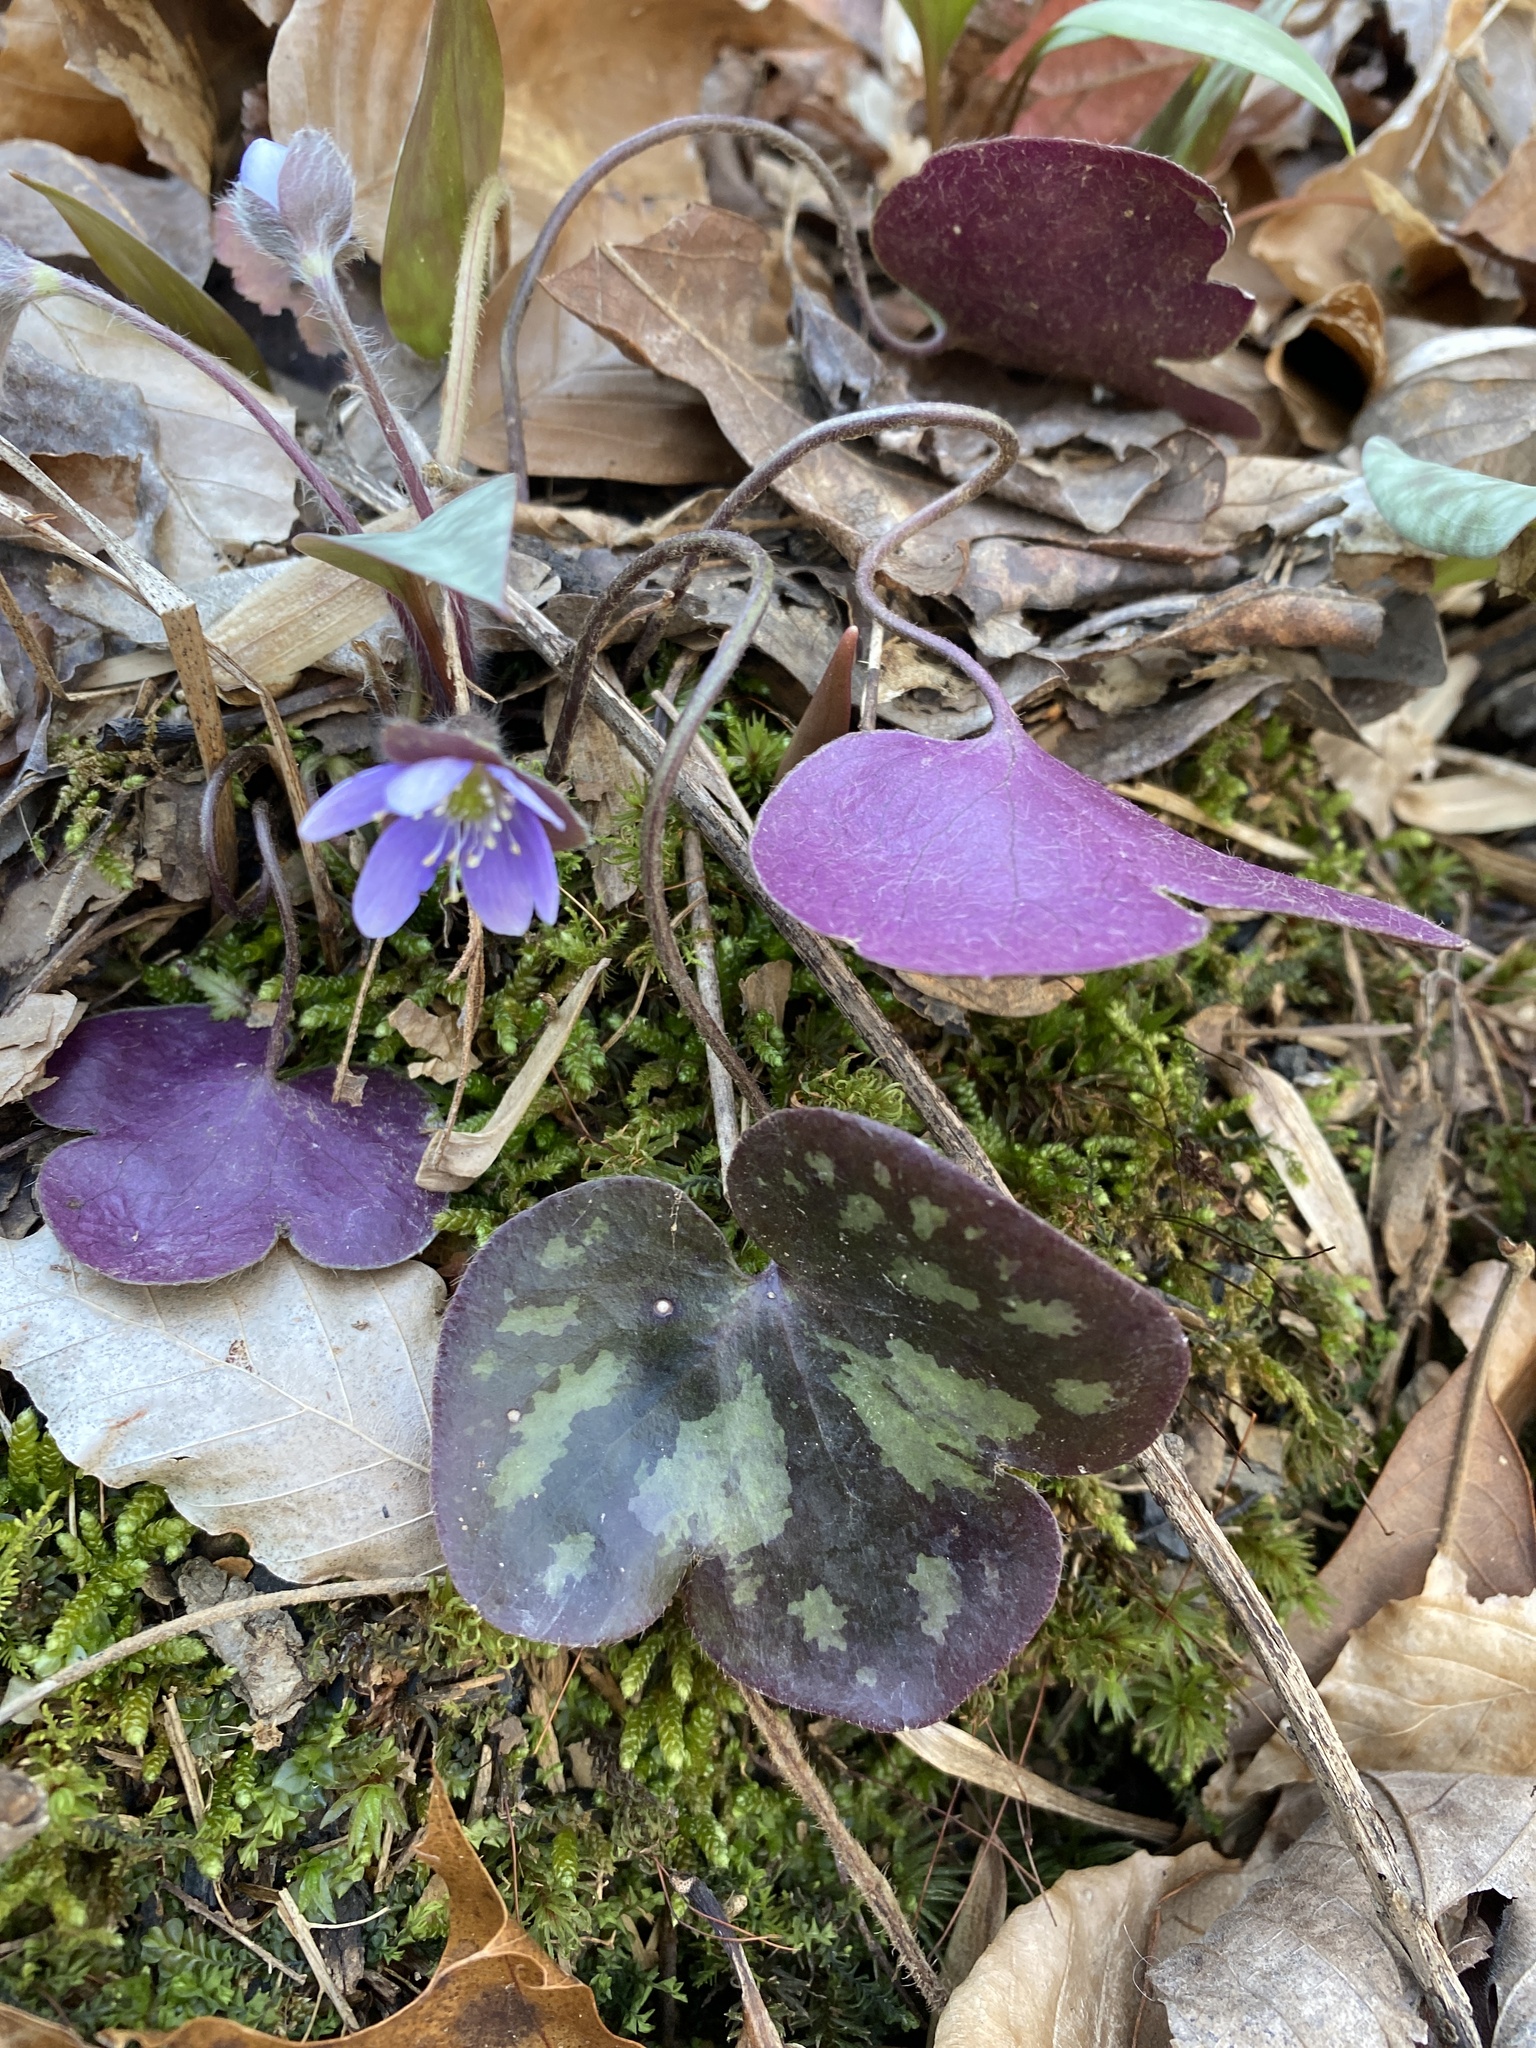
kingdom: Plantae
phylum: Tracheophyta
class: Magnoliopsida
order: Ranunculales
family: Ranunculaceae
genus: Hepatica
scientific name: Hepatica americana
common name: American hepatica
